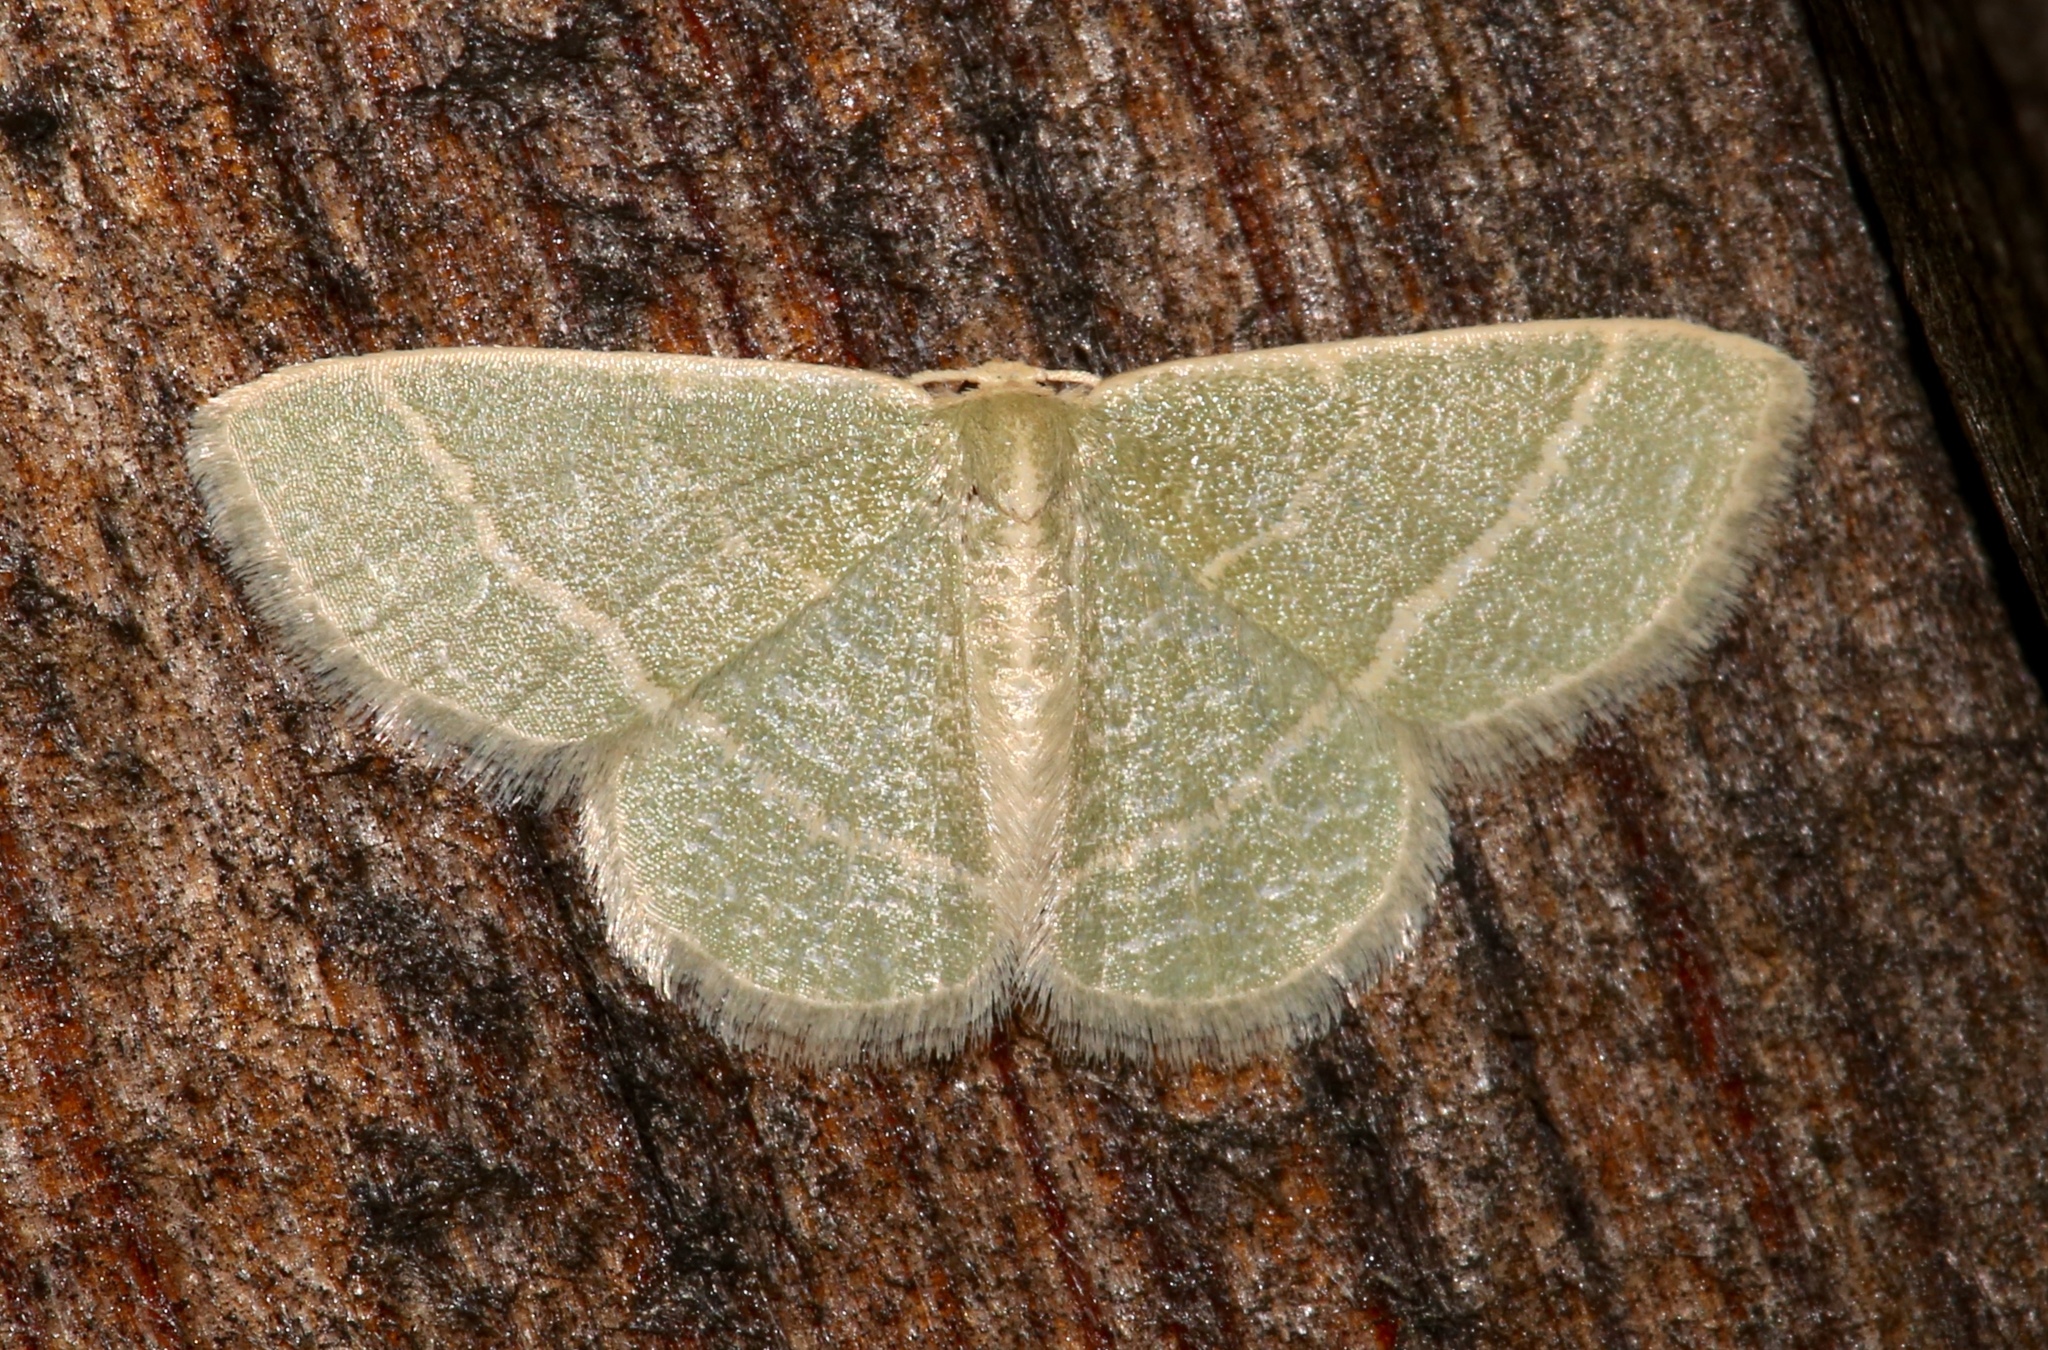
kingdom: Animalia
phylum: Arthropoda
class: Insecta
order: Lepidoptera
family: Geometridae
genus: Chlorochlamys
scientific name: Chlorochlamys chloroleucaria
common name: Blackberry looper
